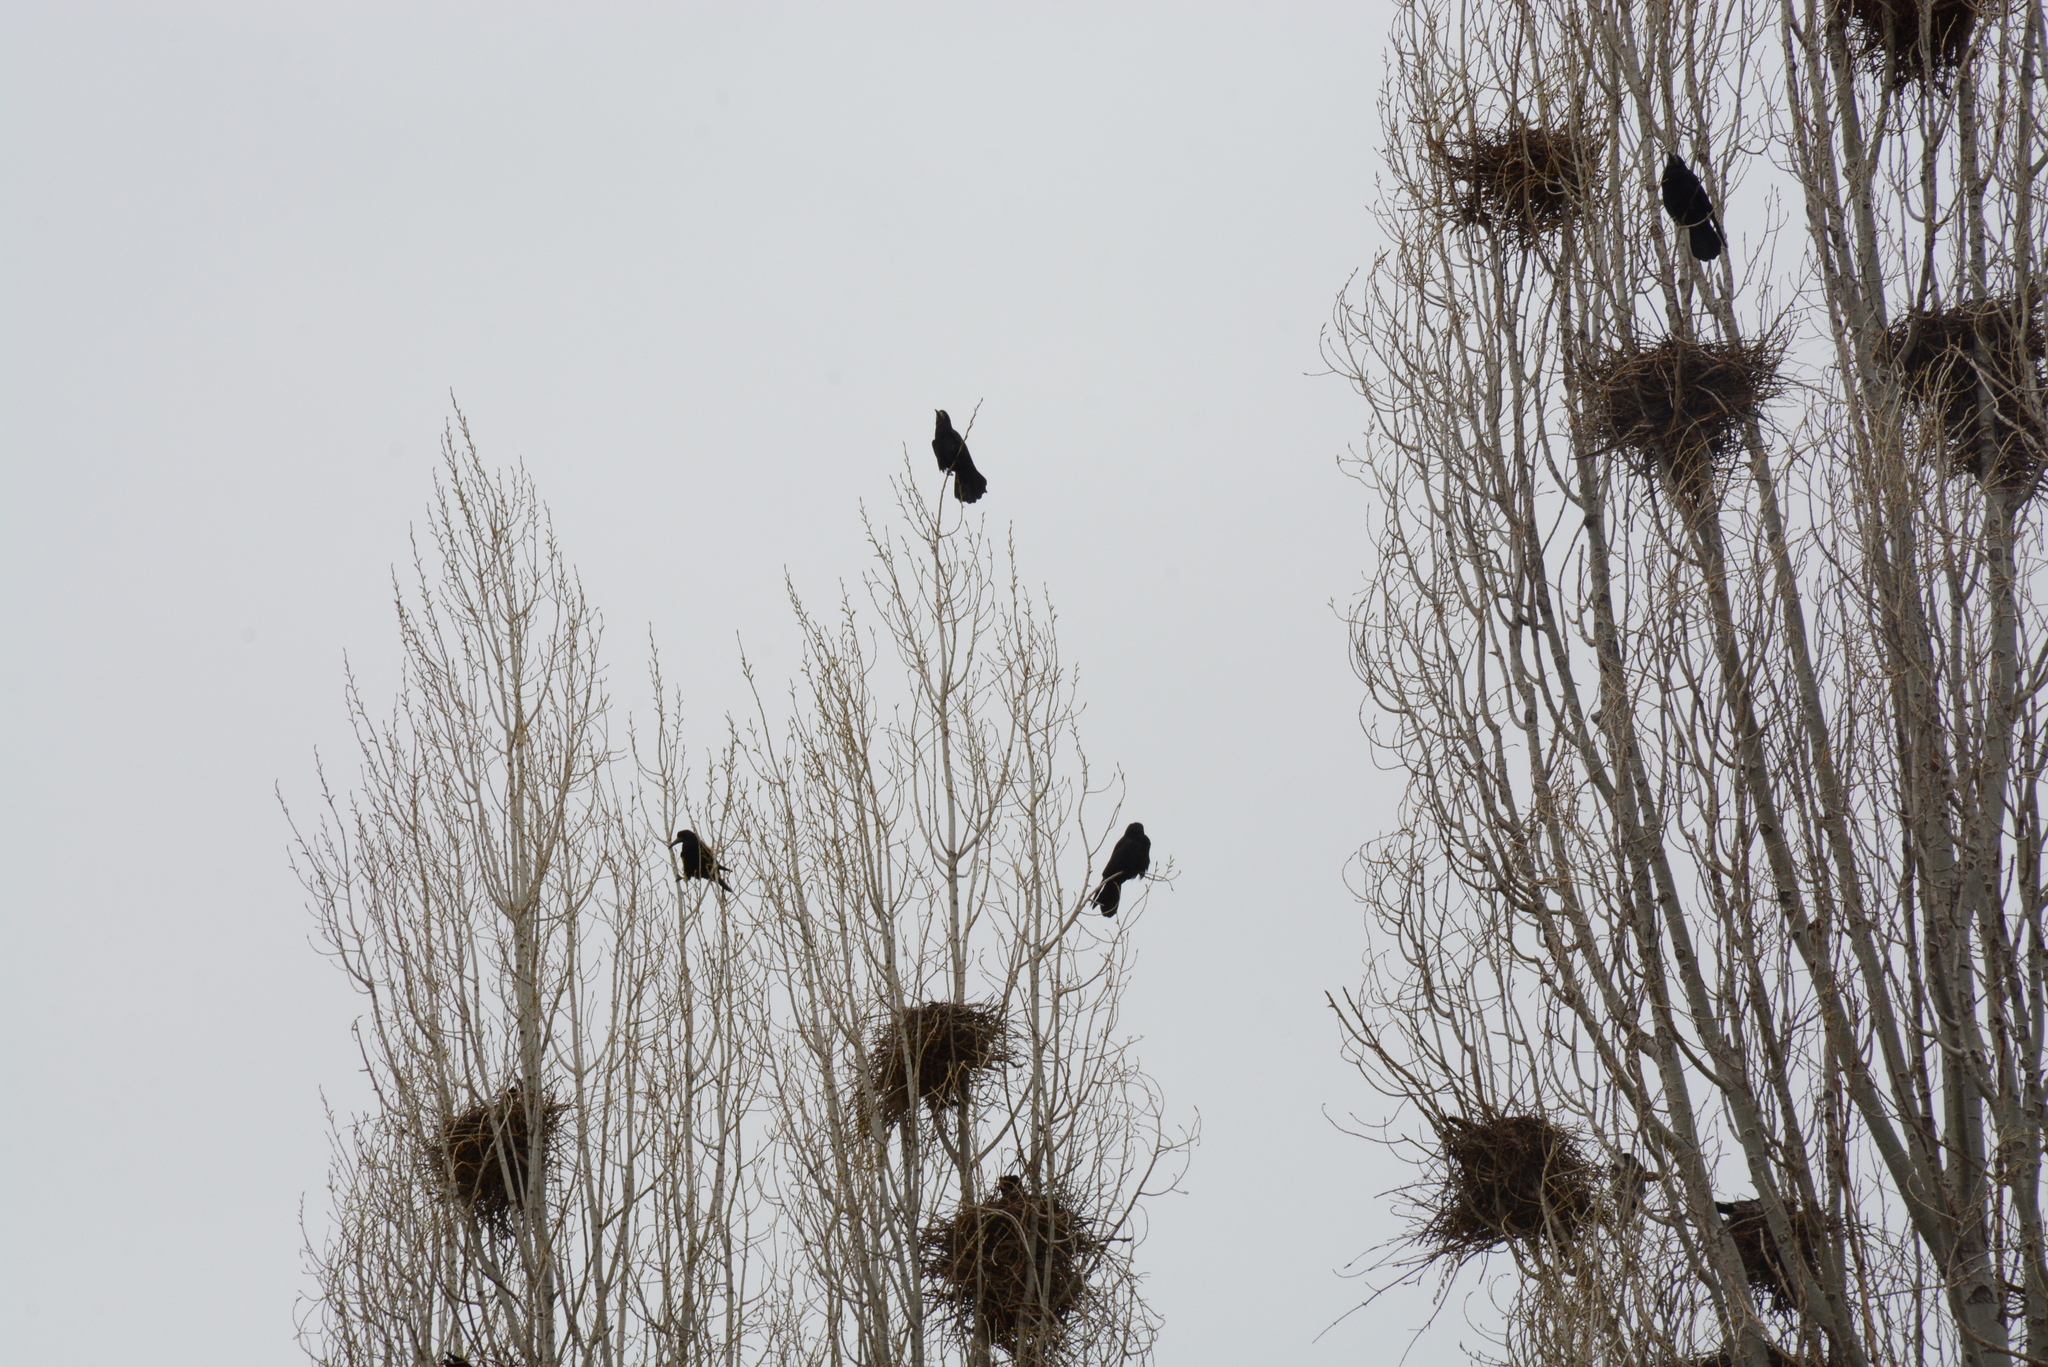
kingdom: Animalia
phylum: Chordata
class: Aves
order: Passeriformes
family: Corvidae
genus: Corvus
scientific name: Corvus frugilegus
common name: Rook
